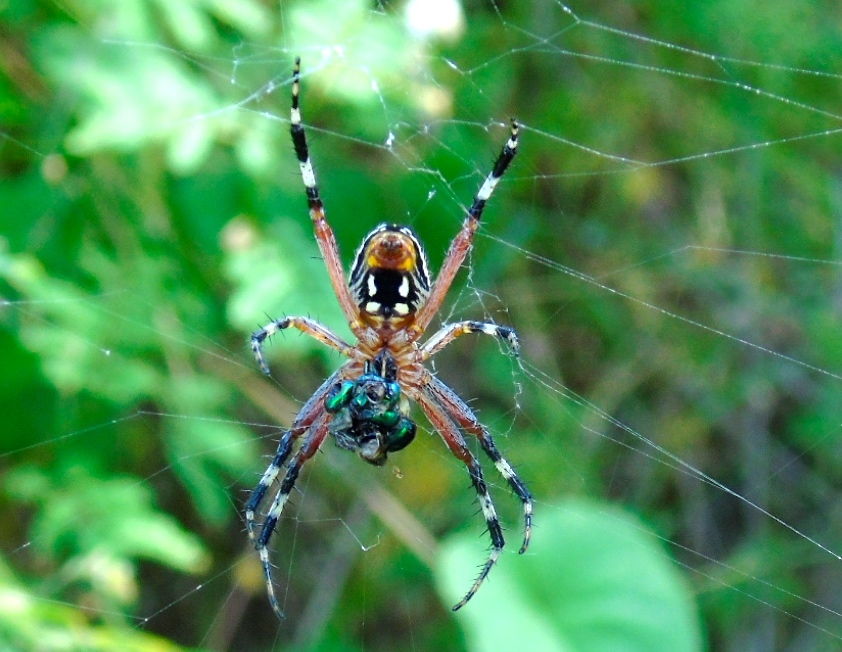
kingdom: Animalia
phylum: Arthropoda
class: Arachnida
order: Araneae
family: Araneidae
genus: Neoscona
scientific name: Neoscona
